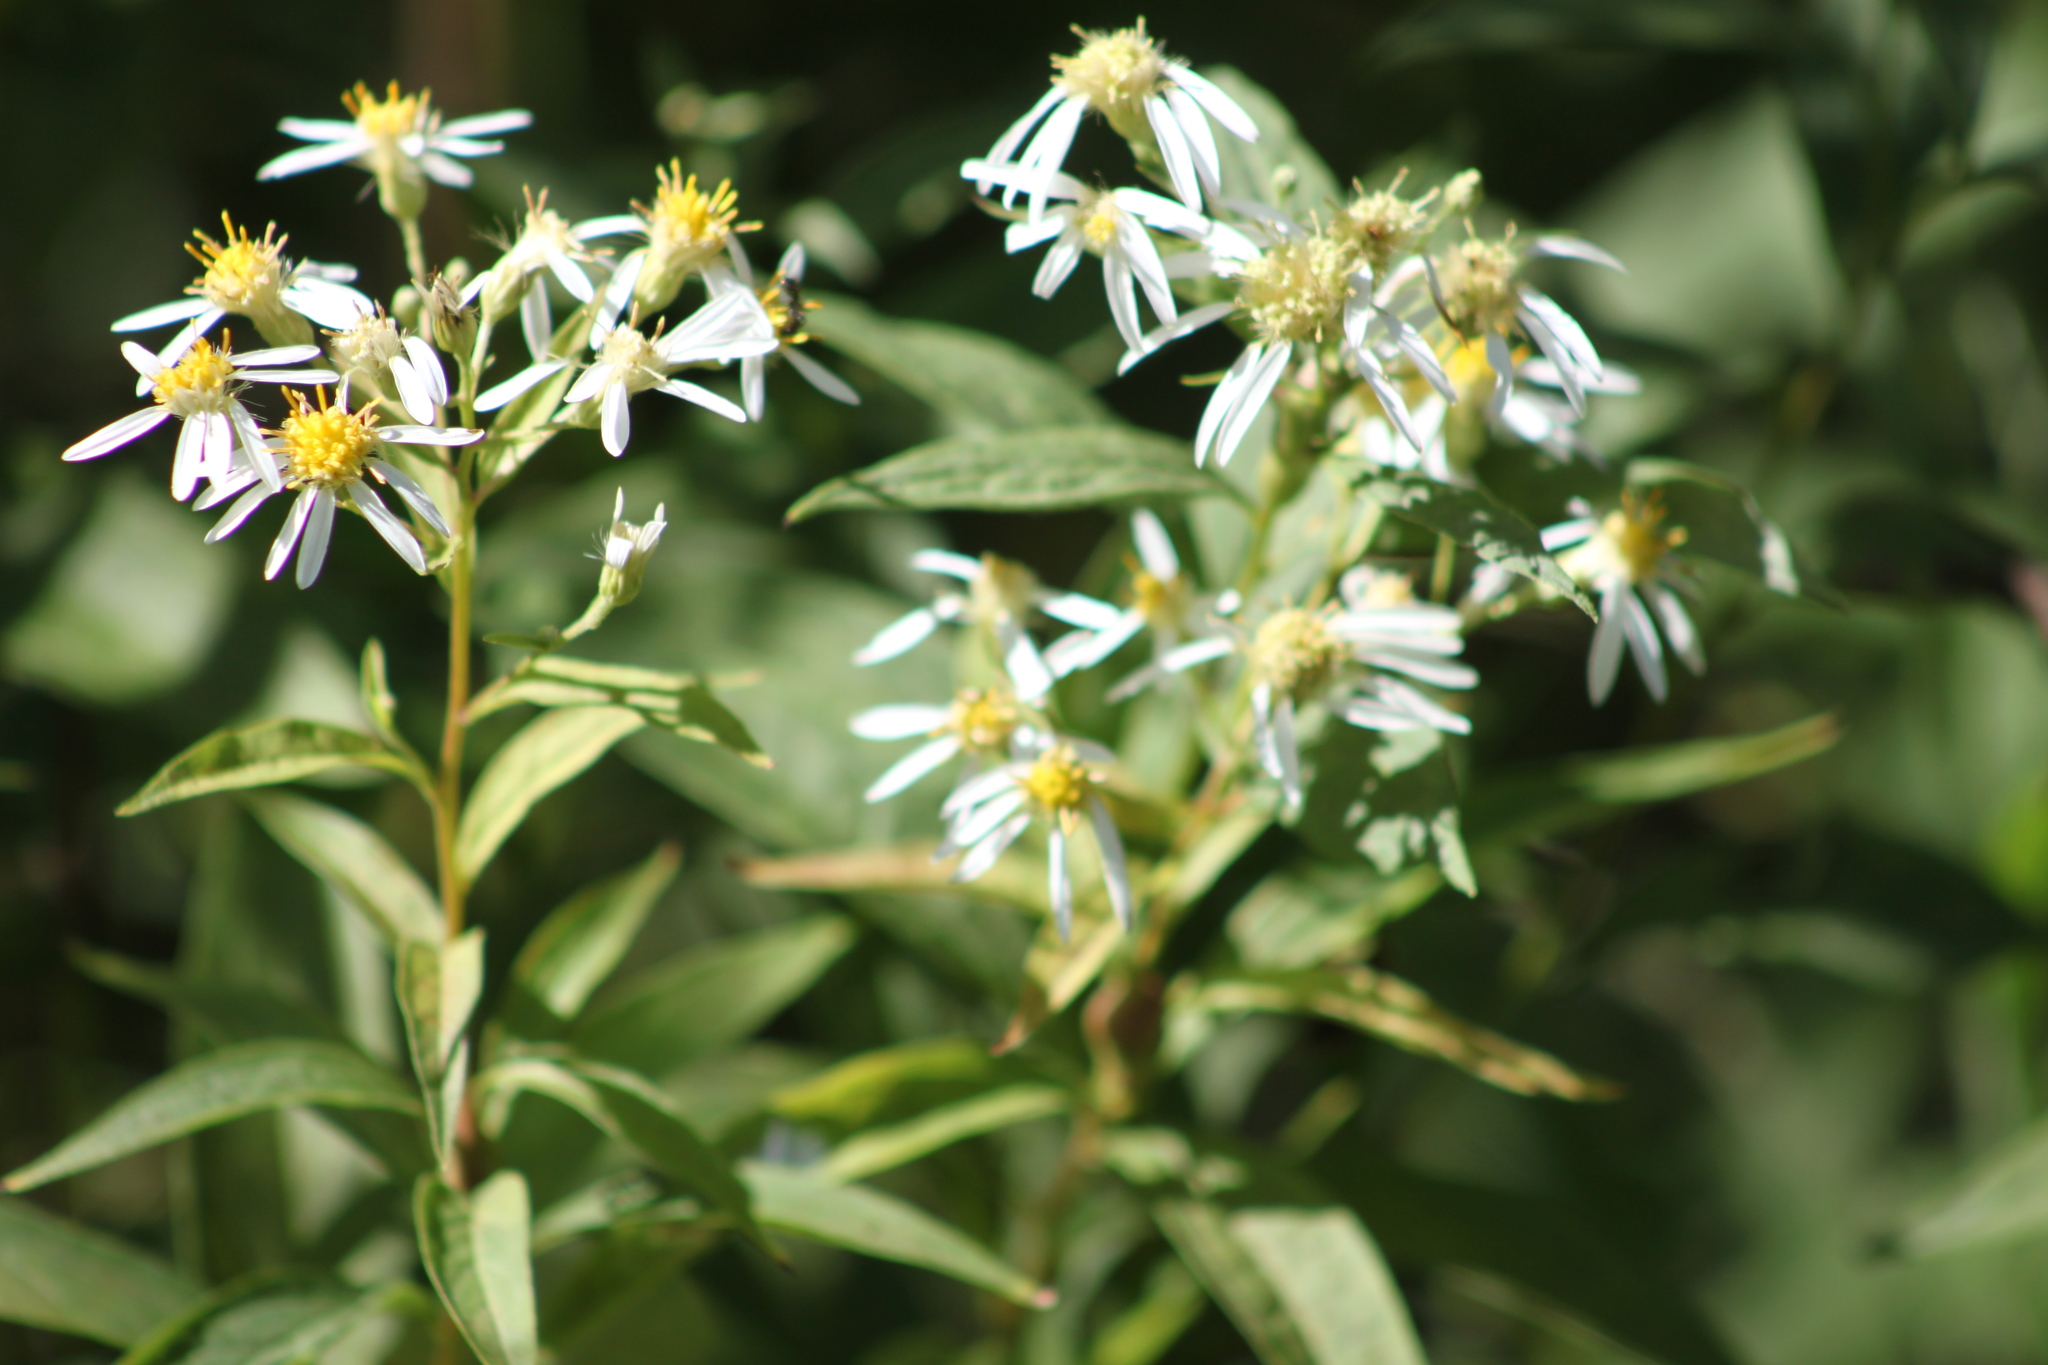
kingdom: Plantae
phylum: Tracheophyta
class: Magnoliopsida
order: Asterales
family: Asteraceae
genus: Doellingeria
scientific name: Doellingeria umbellata
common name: Flat-top white aster
